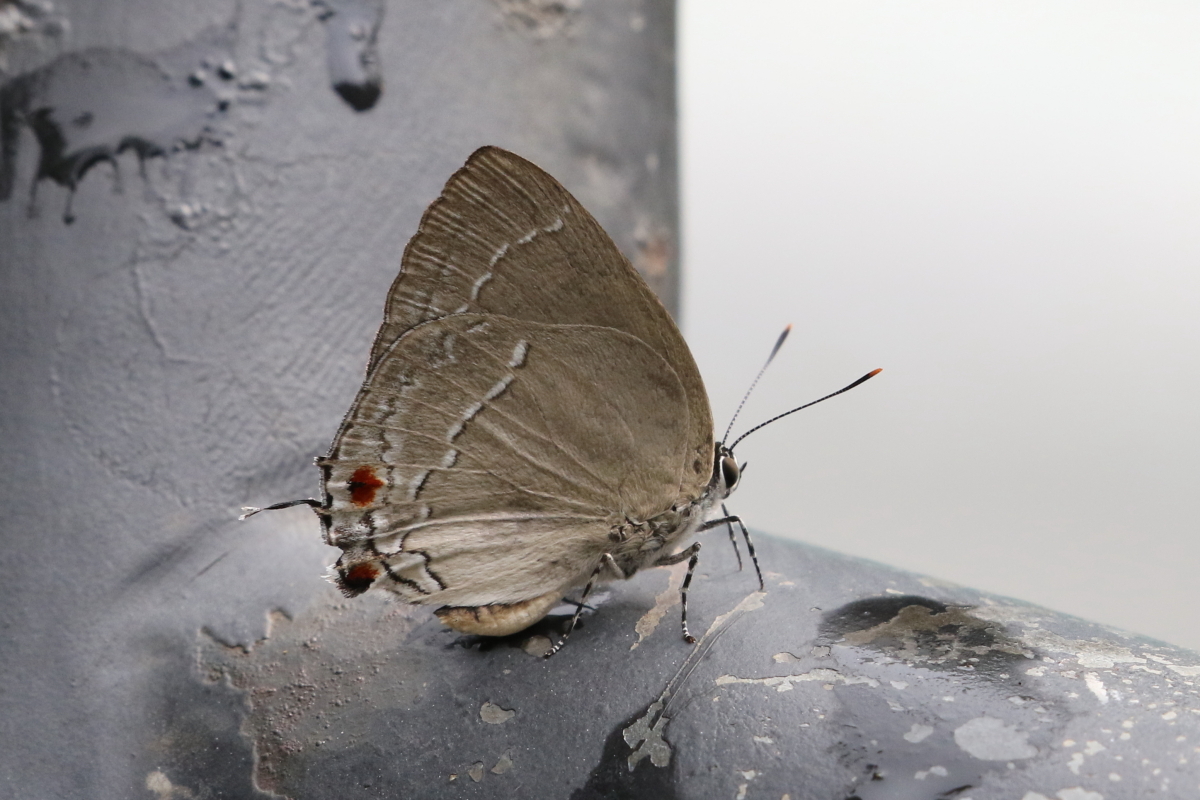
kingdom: Animalia
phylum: Arthropoda
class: Insecta
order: Lepidoptera
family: Lycaenidae
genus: Thecla
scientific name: Thecla ambrax
